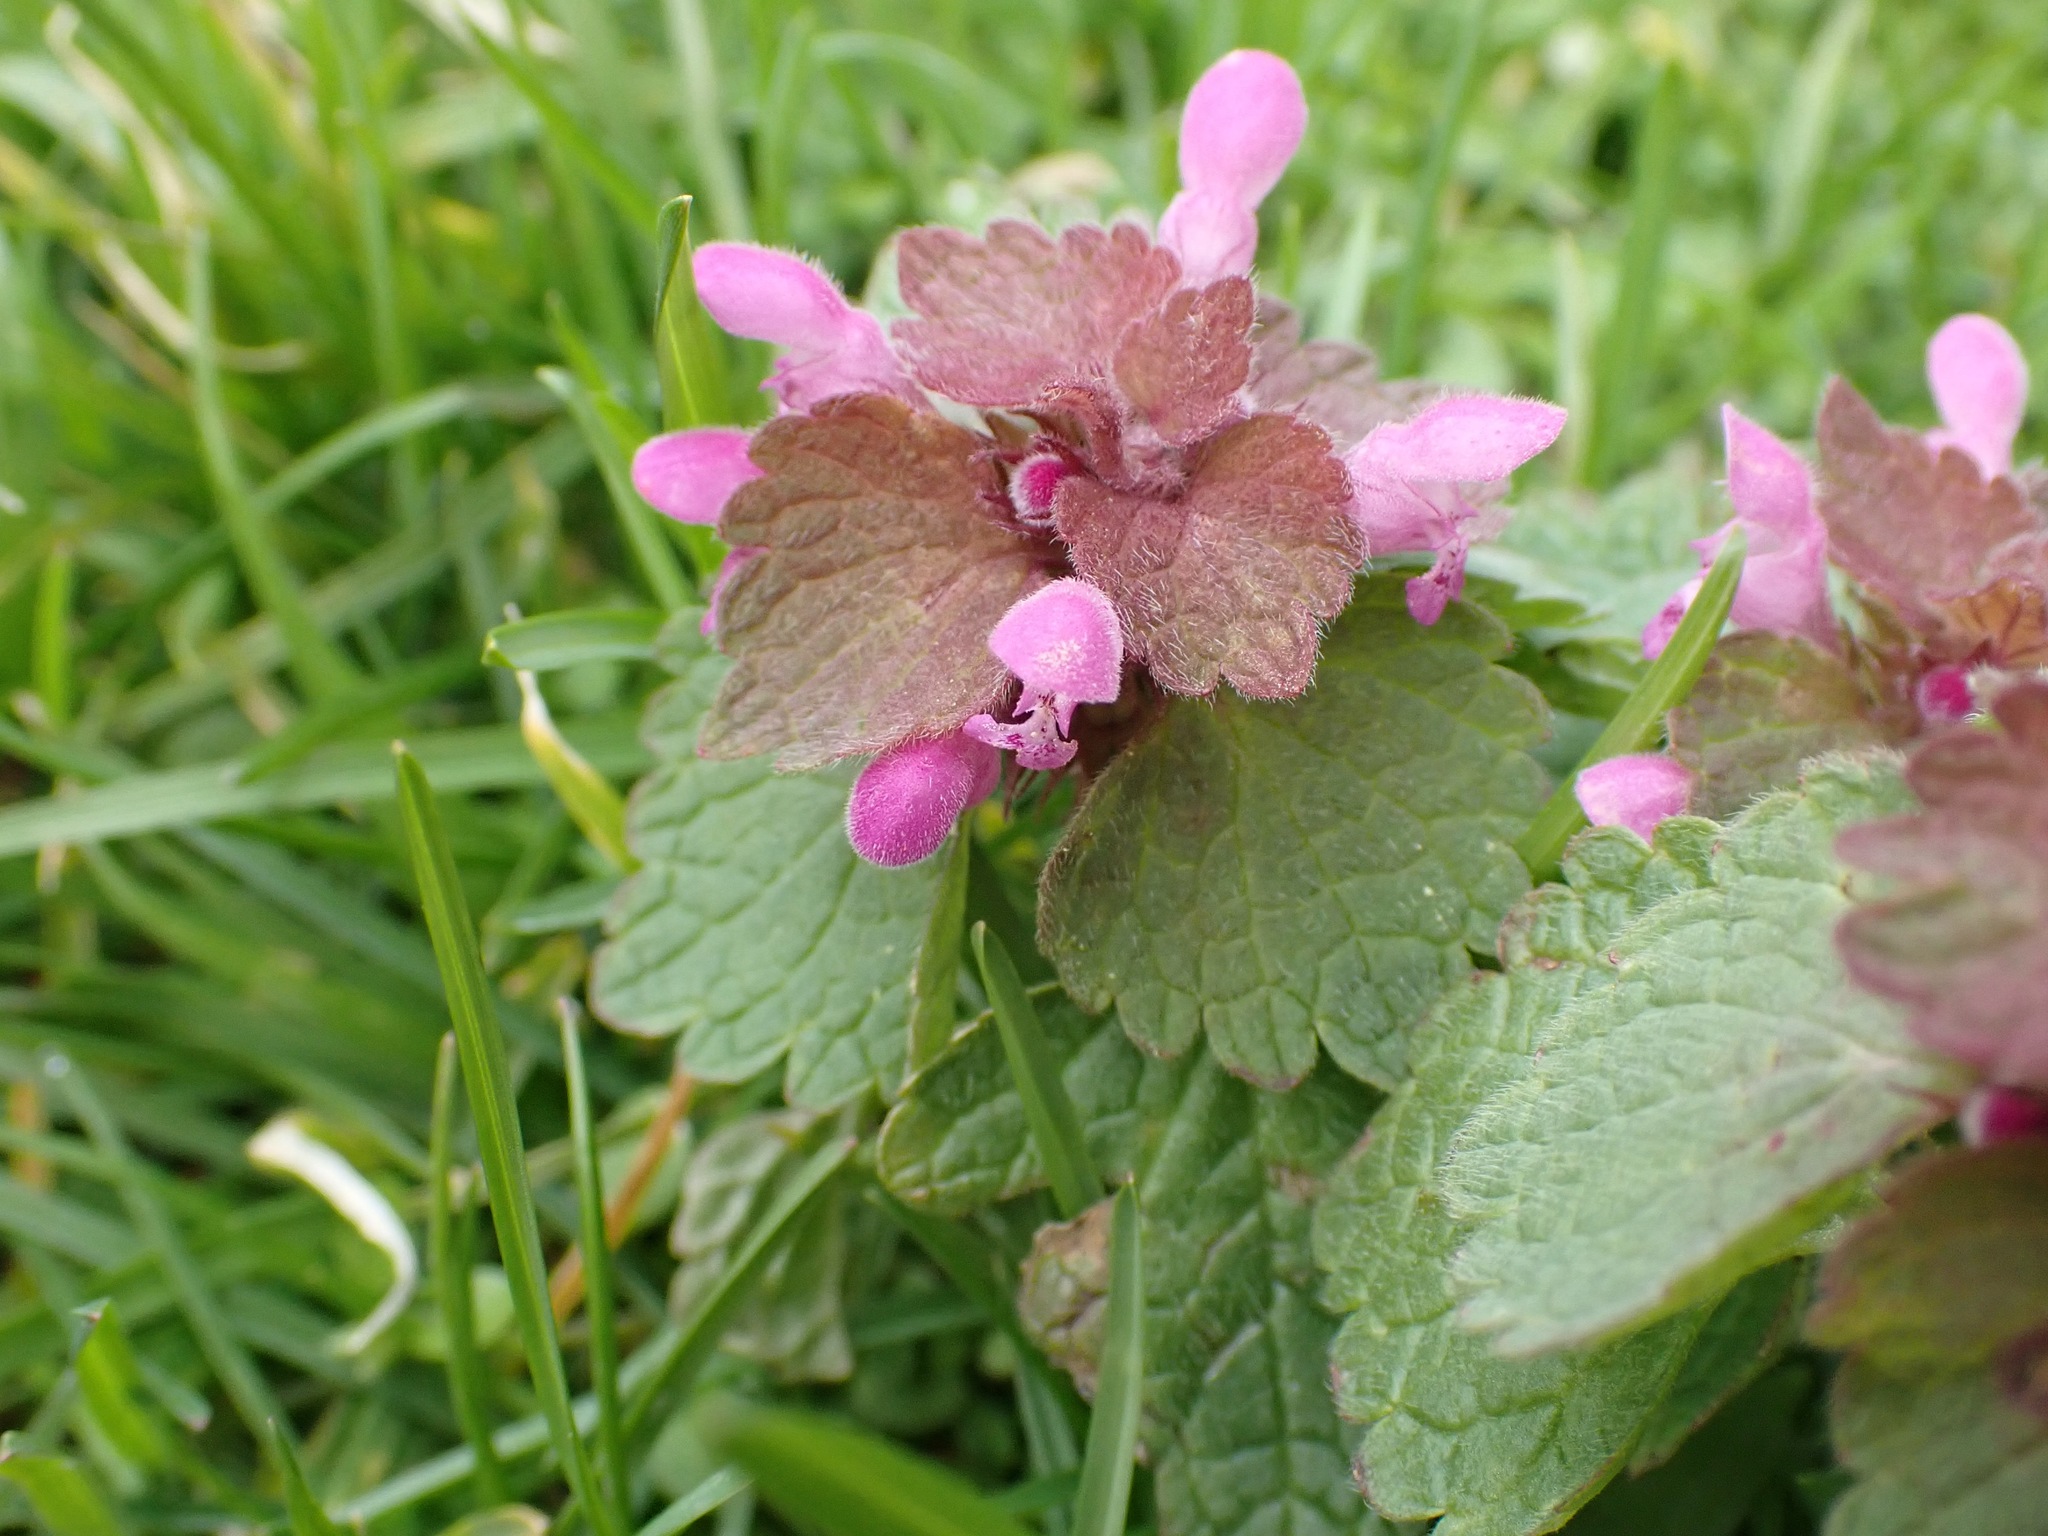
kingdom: Plantae
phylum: Tracheophyta
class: Magnoliopsida
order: Lamiales
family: Lamiaceae
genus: Lamium
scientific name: Lamium purpureum
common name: Red dead-nettle
